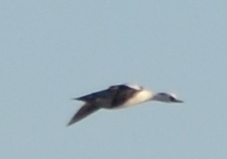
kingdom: Animalia
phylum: Chordata
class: Aves
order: Anseriformes
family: Anatidae
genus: Mergellus
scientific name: Mergellus albellus
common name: Smew
